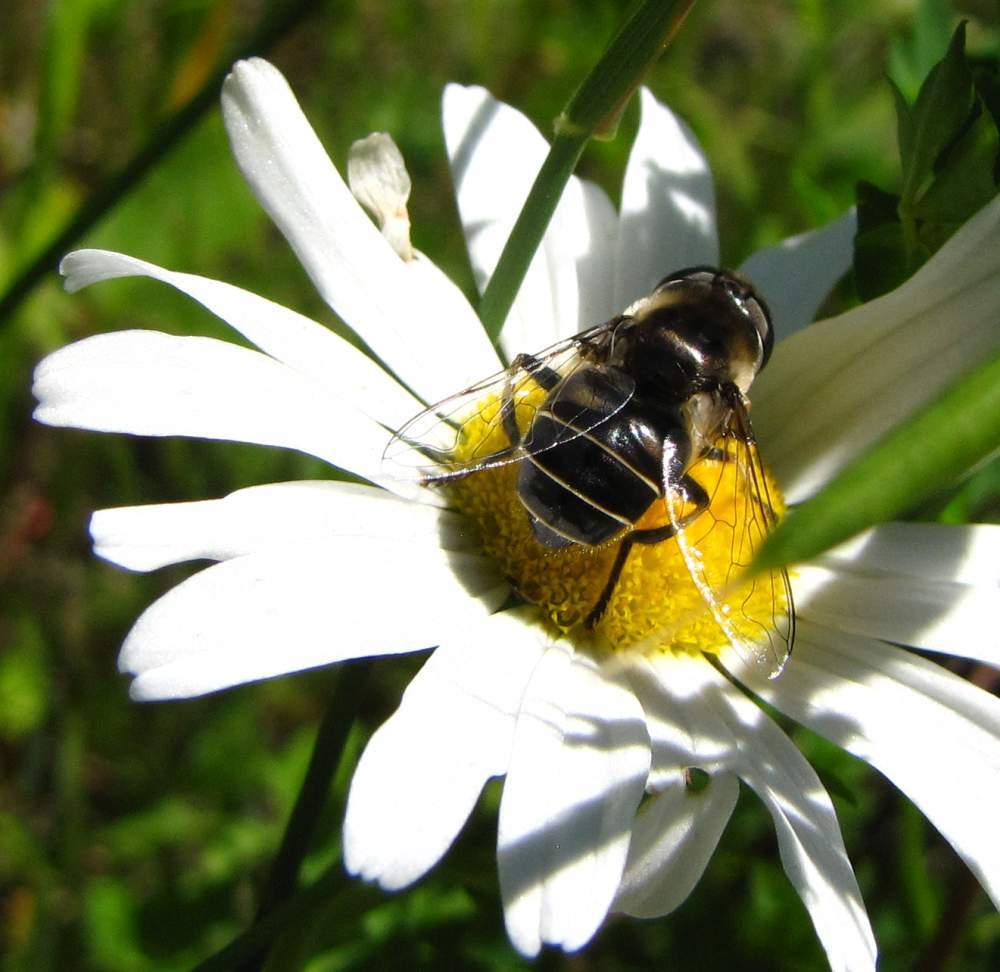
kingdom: Animalia
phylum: Arthropoda
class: Insecta
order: Diptera
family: Syrphidae
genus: Eristalis
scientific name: Eristalis dimidiata
